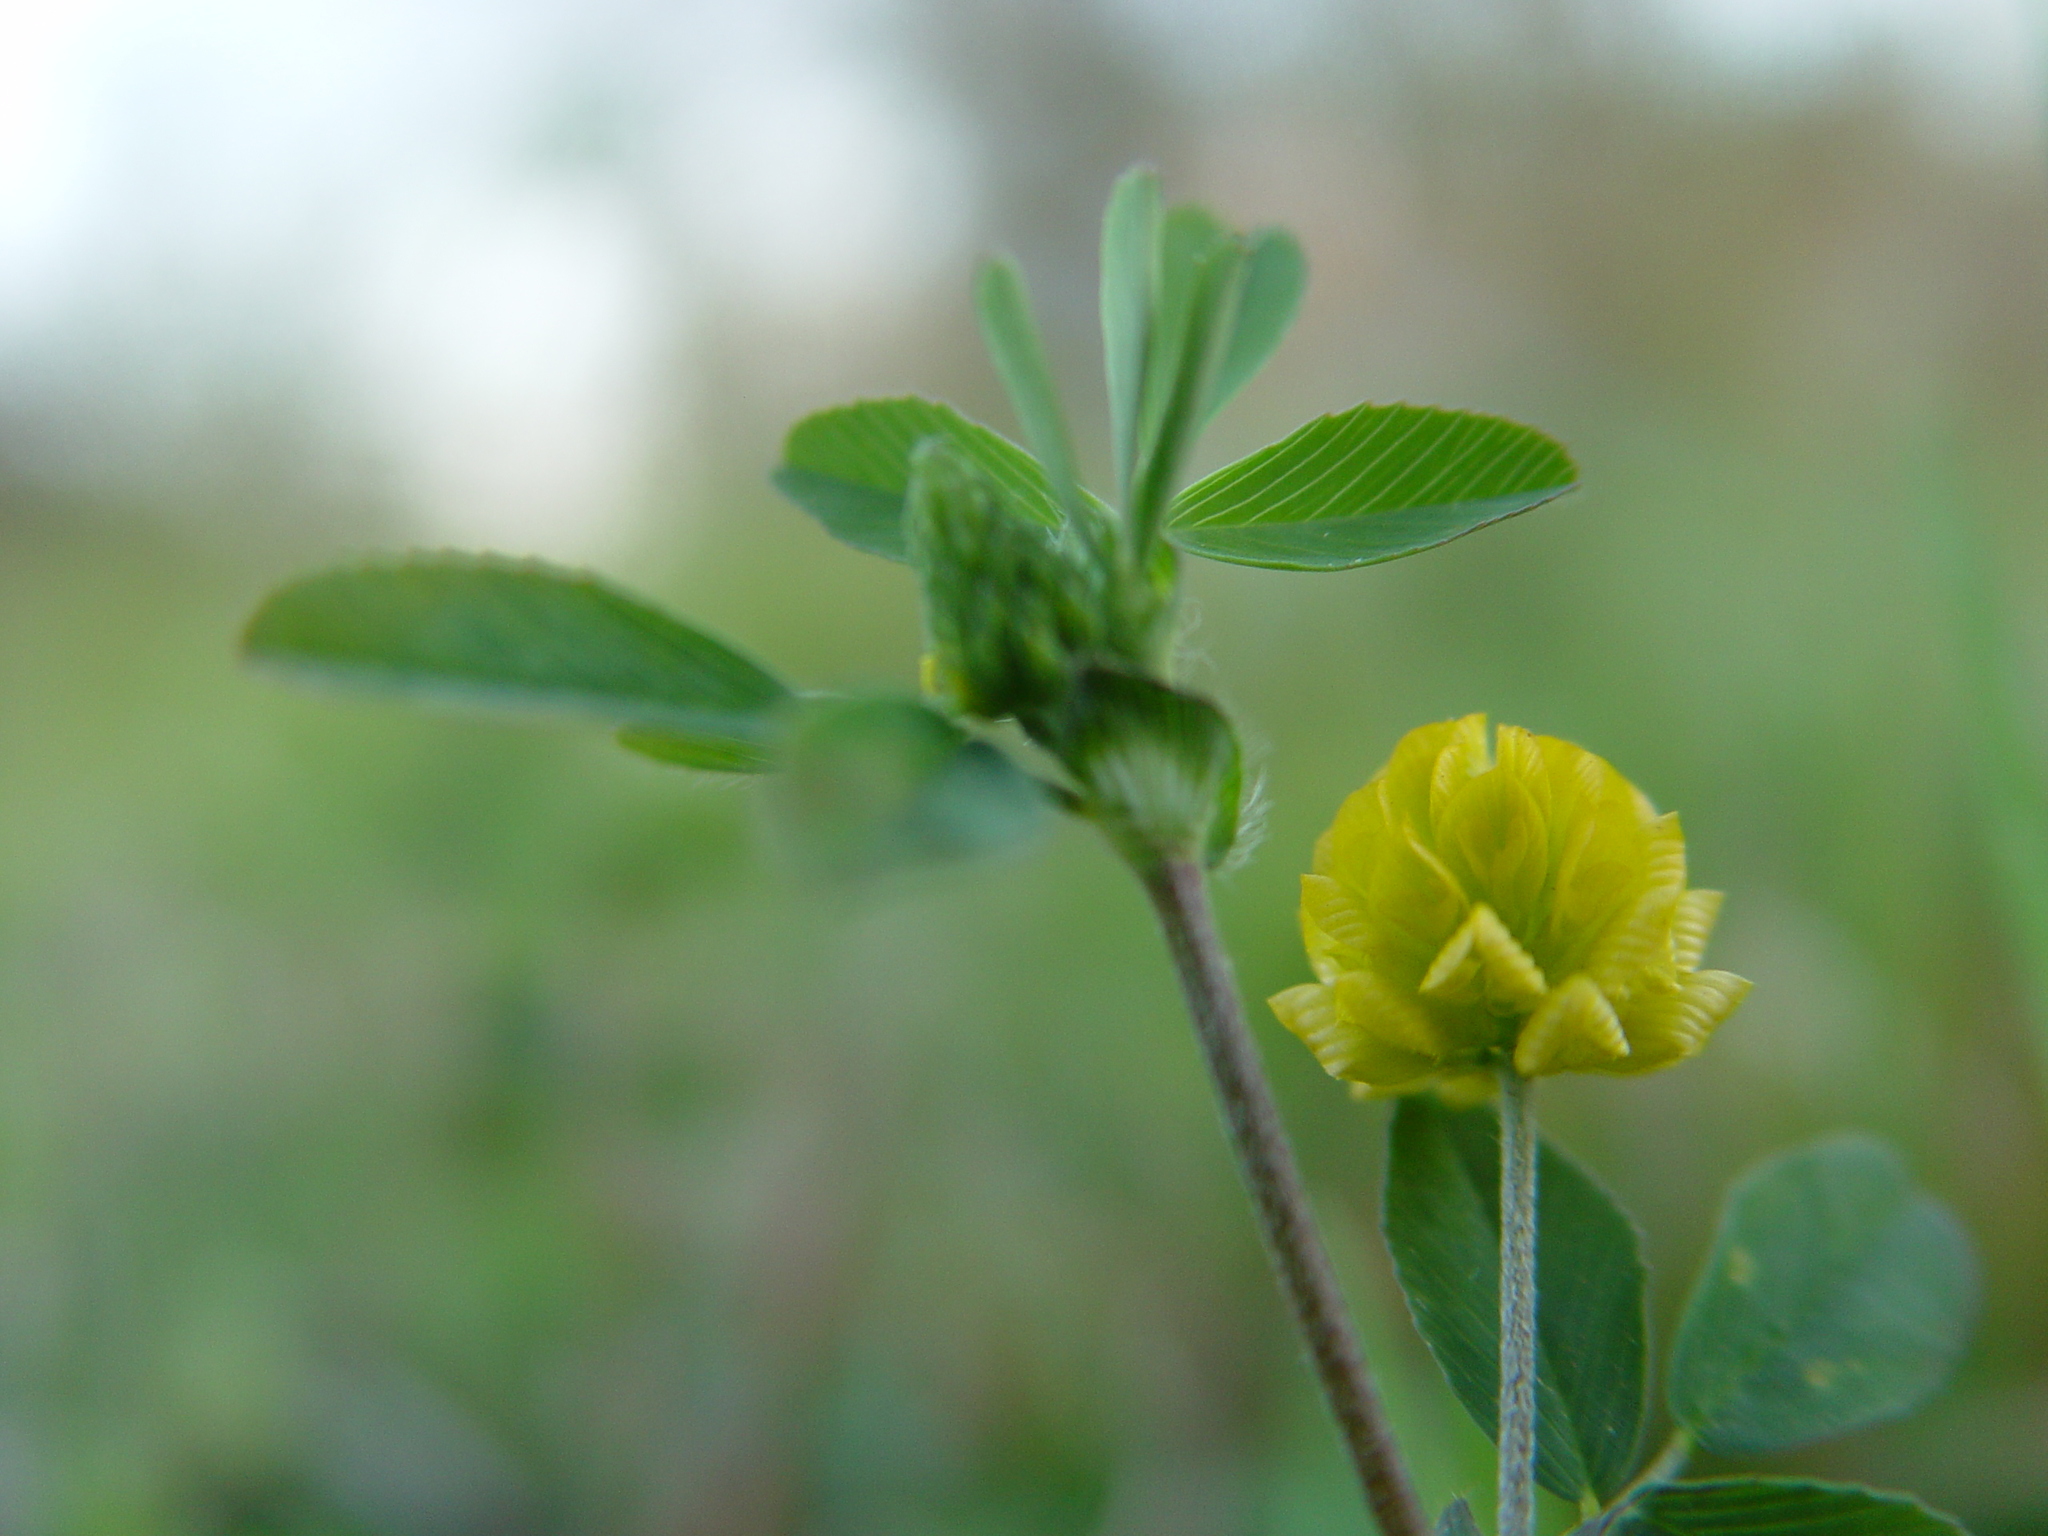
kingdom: Plantae
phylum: Tracheophyta
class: Magnoliopsida
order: Fabales
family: Fabaceae
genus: Trifolium
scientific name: Trifolium campestre
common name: Field clover
